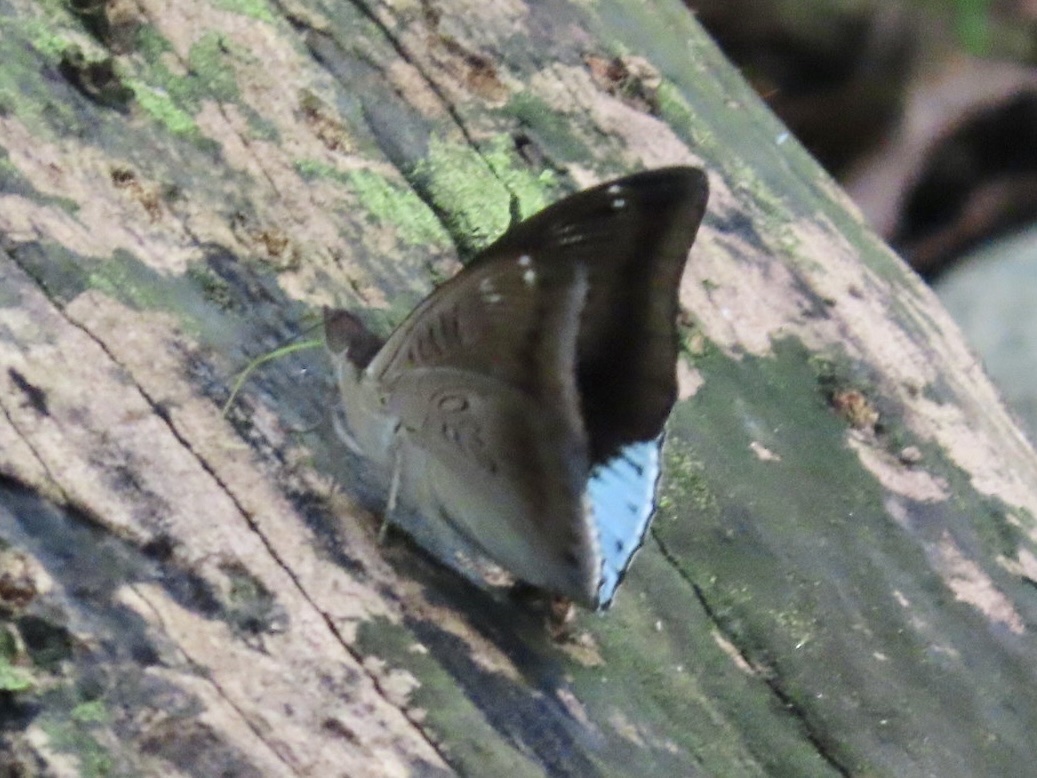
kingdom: Animalia
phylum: Arthropoda
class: Insecta
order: Lepidoptera
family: Nymphalidae
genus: Euthalia
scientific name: Euthalia phemius
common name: White-edged blue baron
